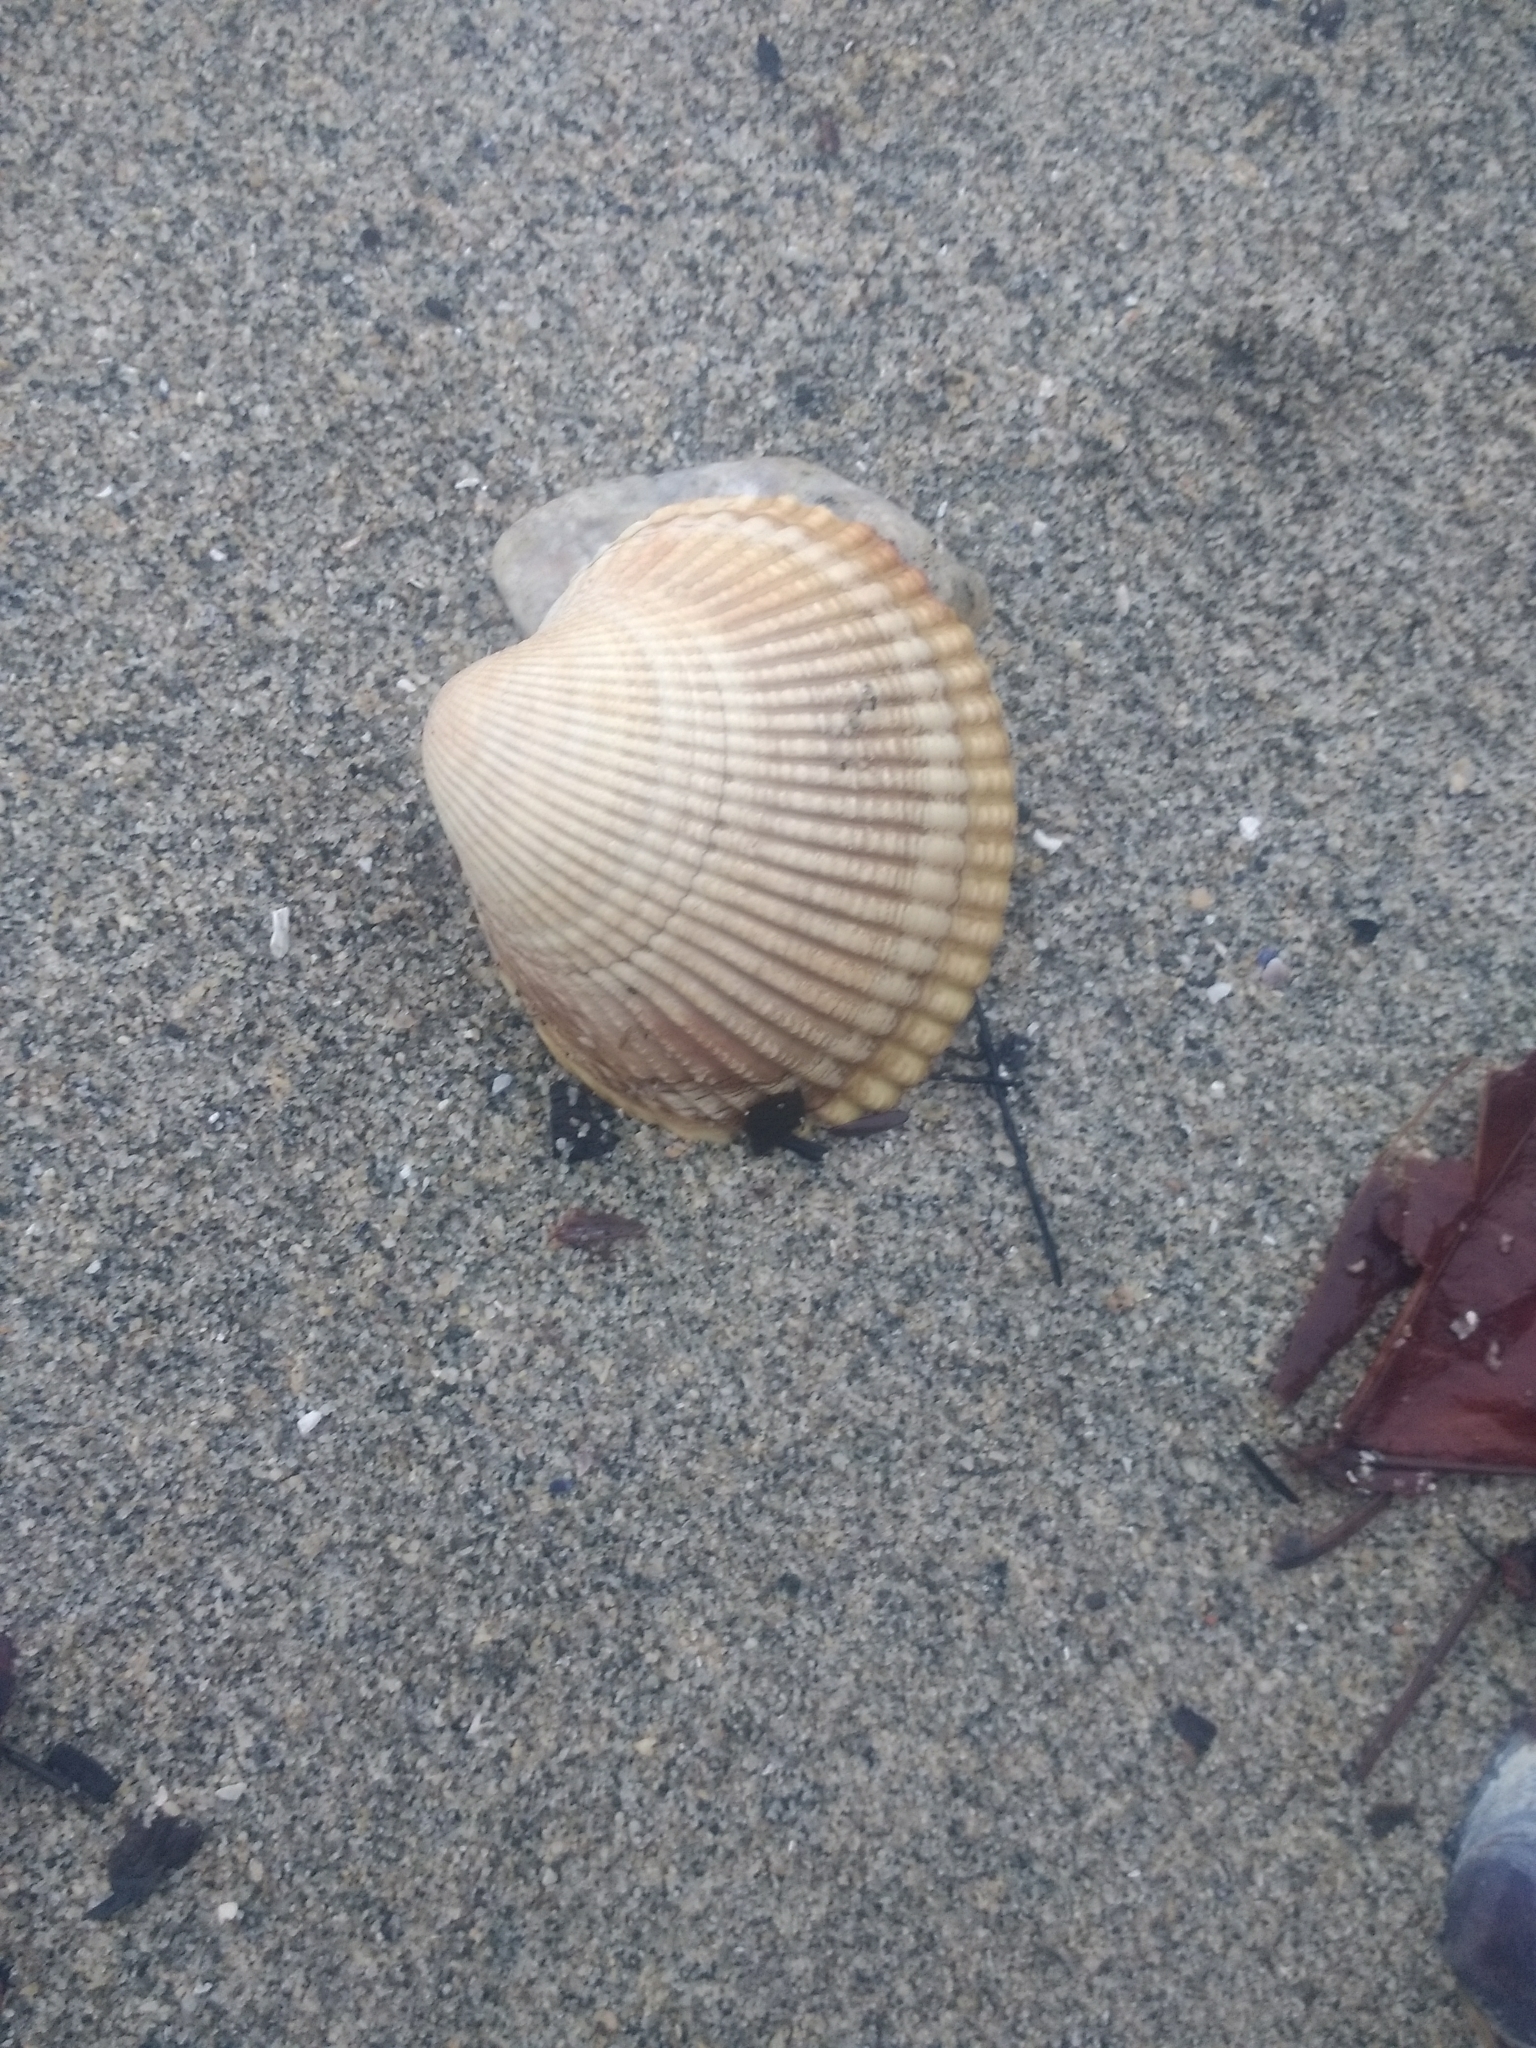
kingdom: Animalia
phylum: Mollusca
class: Bivalvia
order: Cardiida
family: Cardiidae
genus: Clinocardium
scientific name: Clinocardium nuttallii
